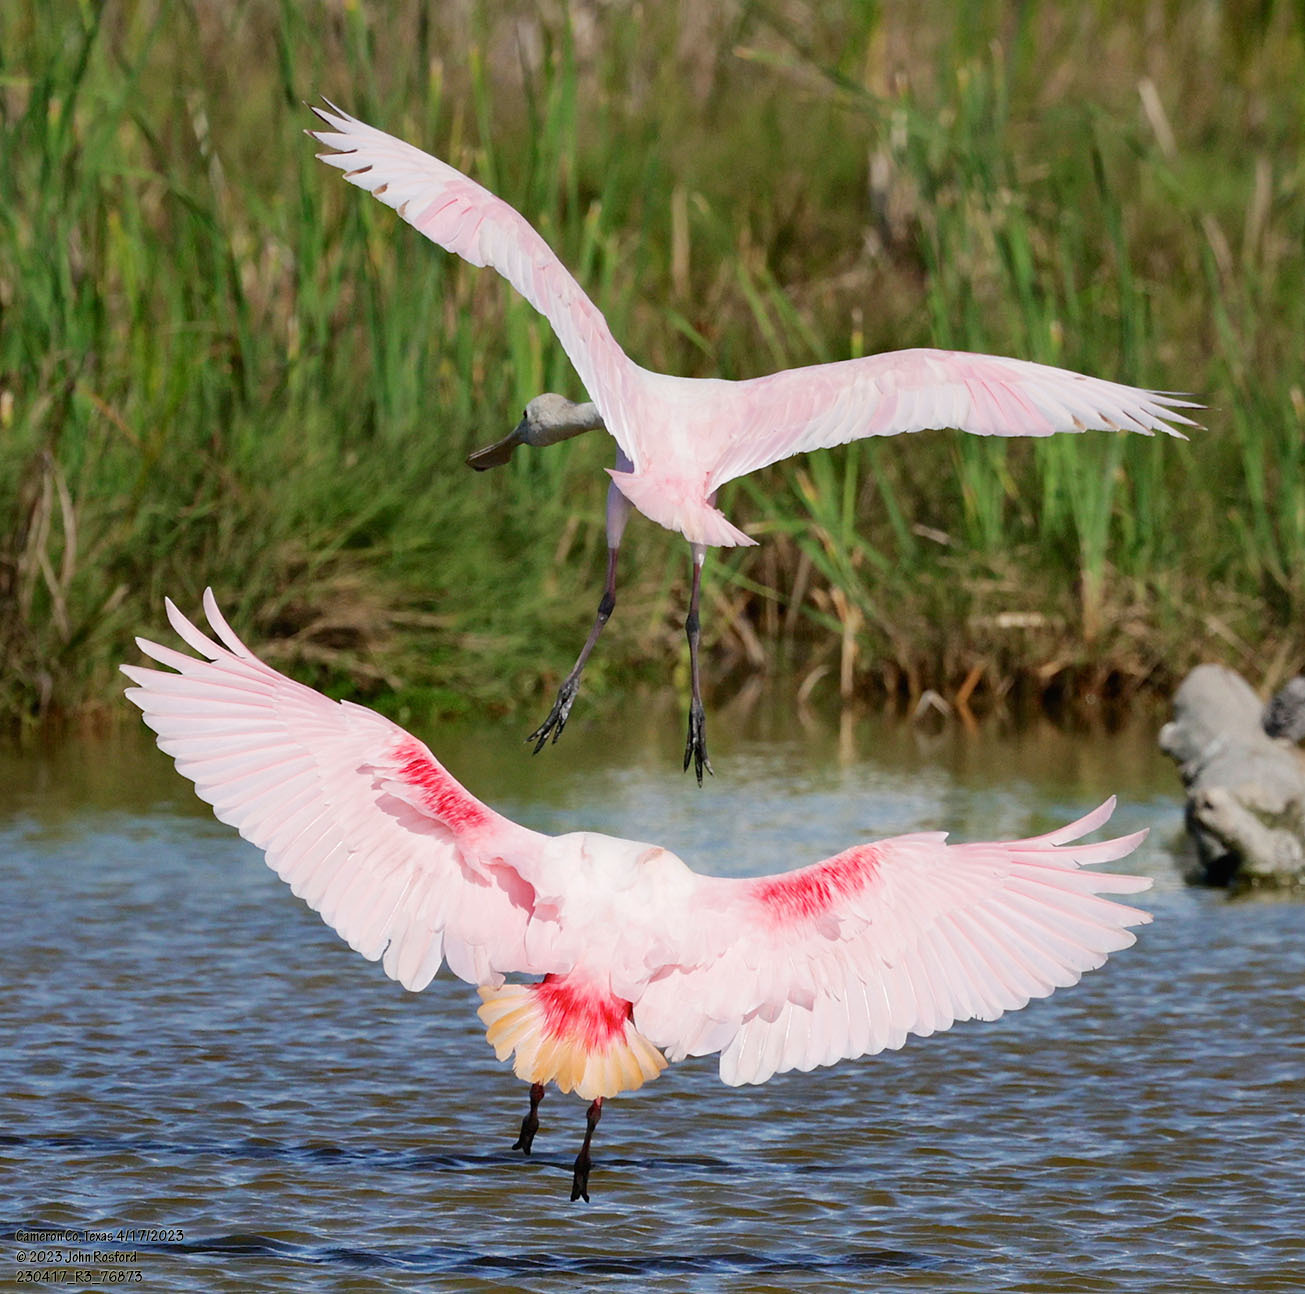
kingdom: Animalia
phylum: Chordata
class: Aves
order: Pelecaniformes
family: Threskiornithidae
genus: Platalea
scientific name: Platalea ajaja
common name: Roseate spoonbill
